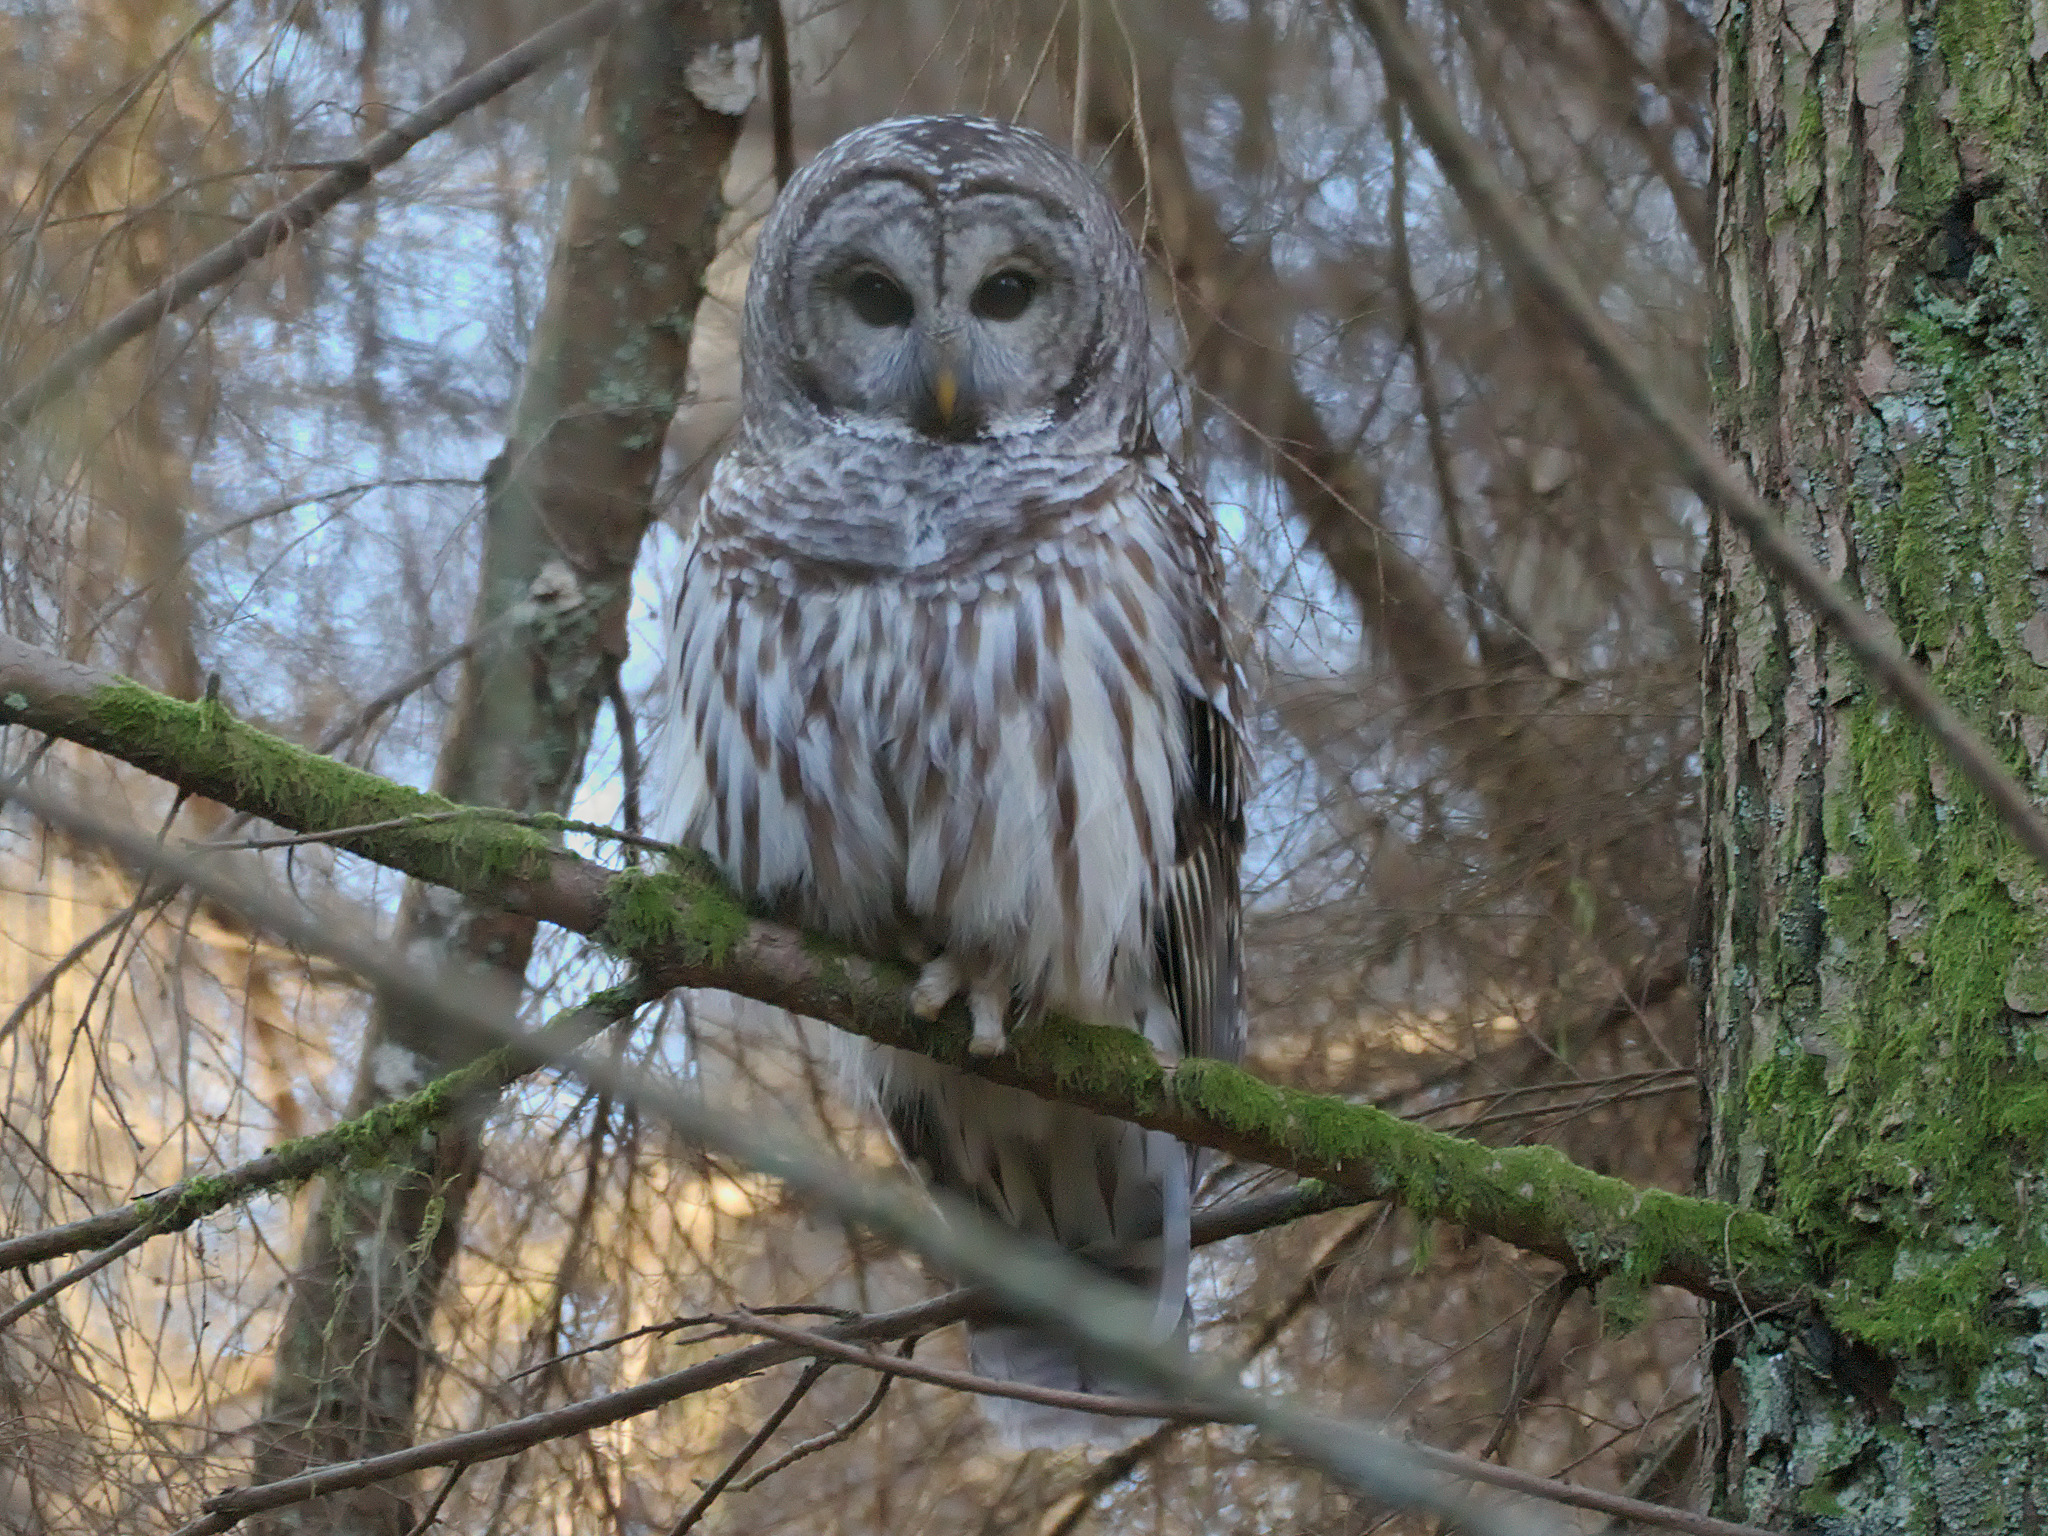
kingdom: Animalia
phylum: Chordata
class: Aves
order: Strigiformes
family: Strigidae
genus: Strix
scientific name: Strix varia
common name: Barred owl
